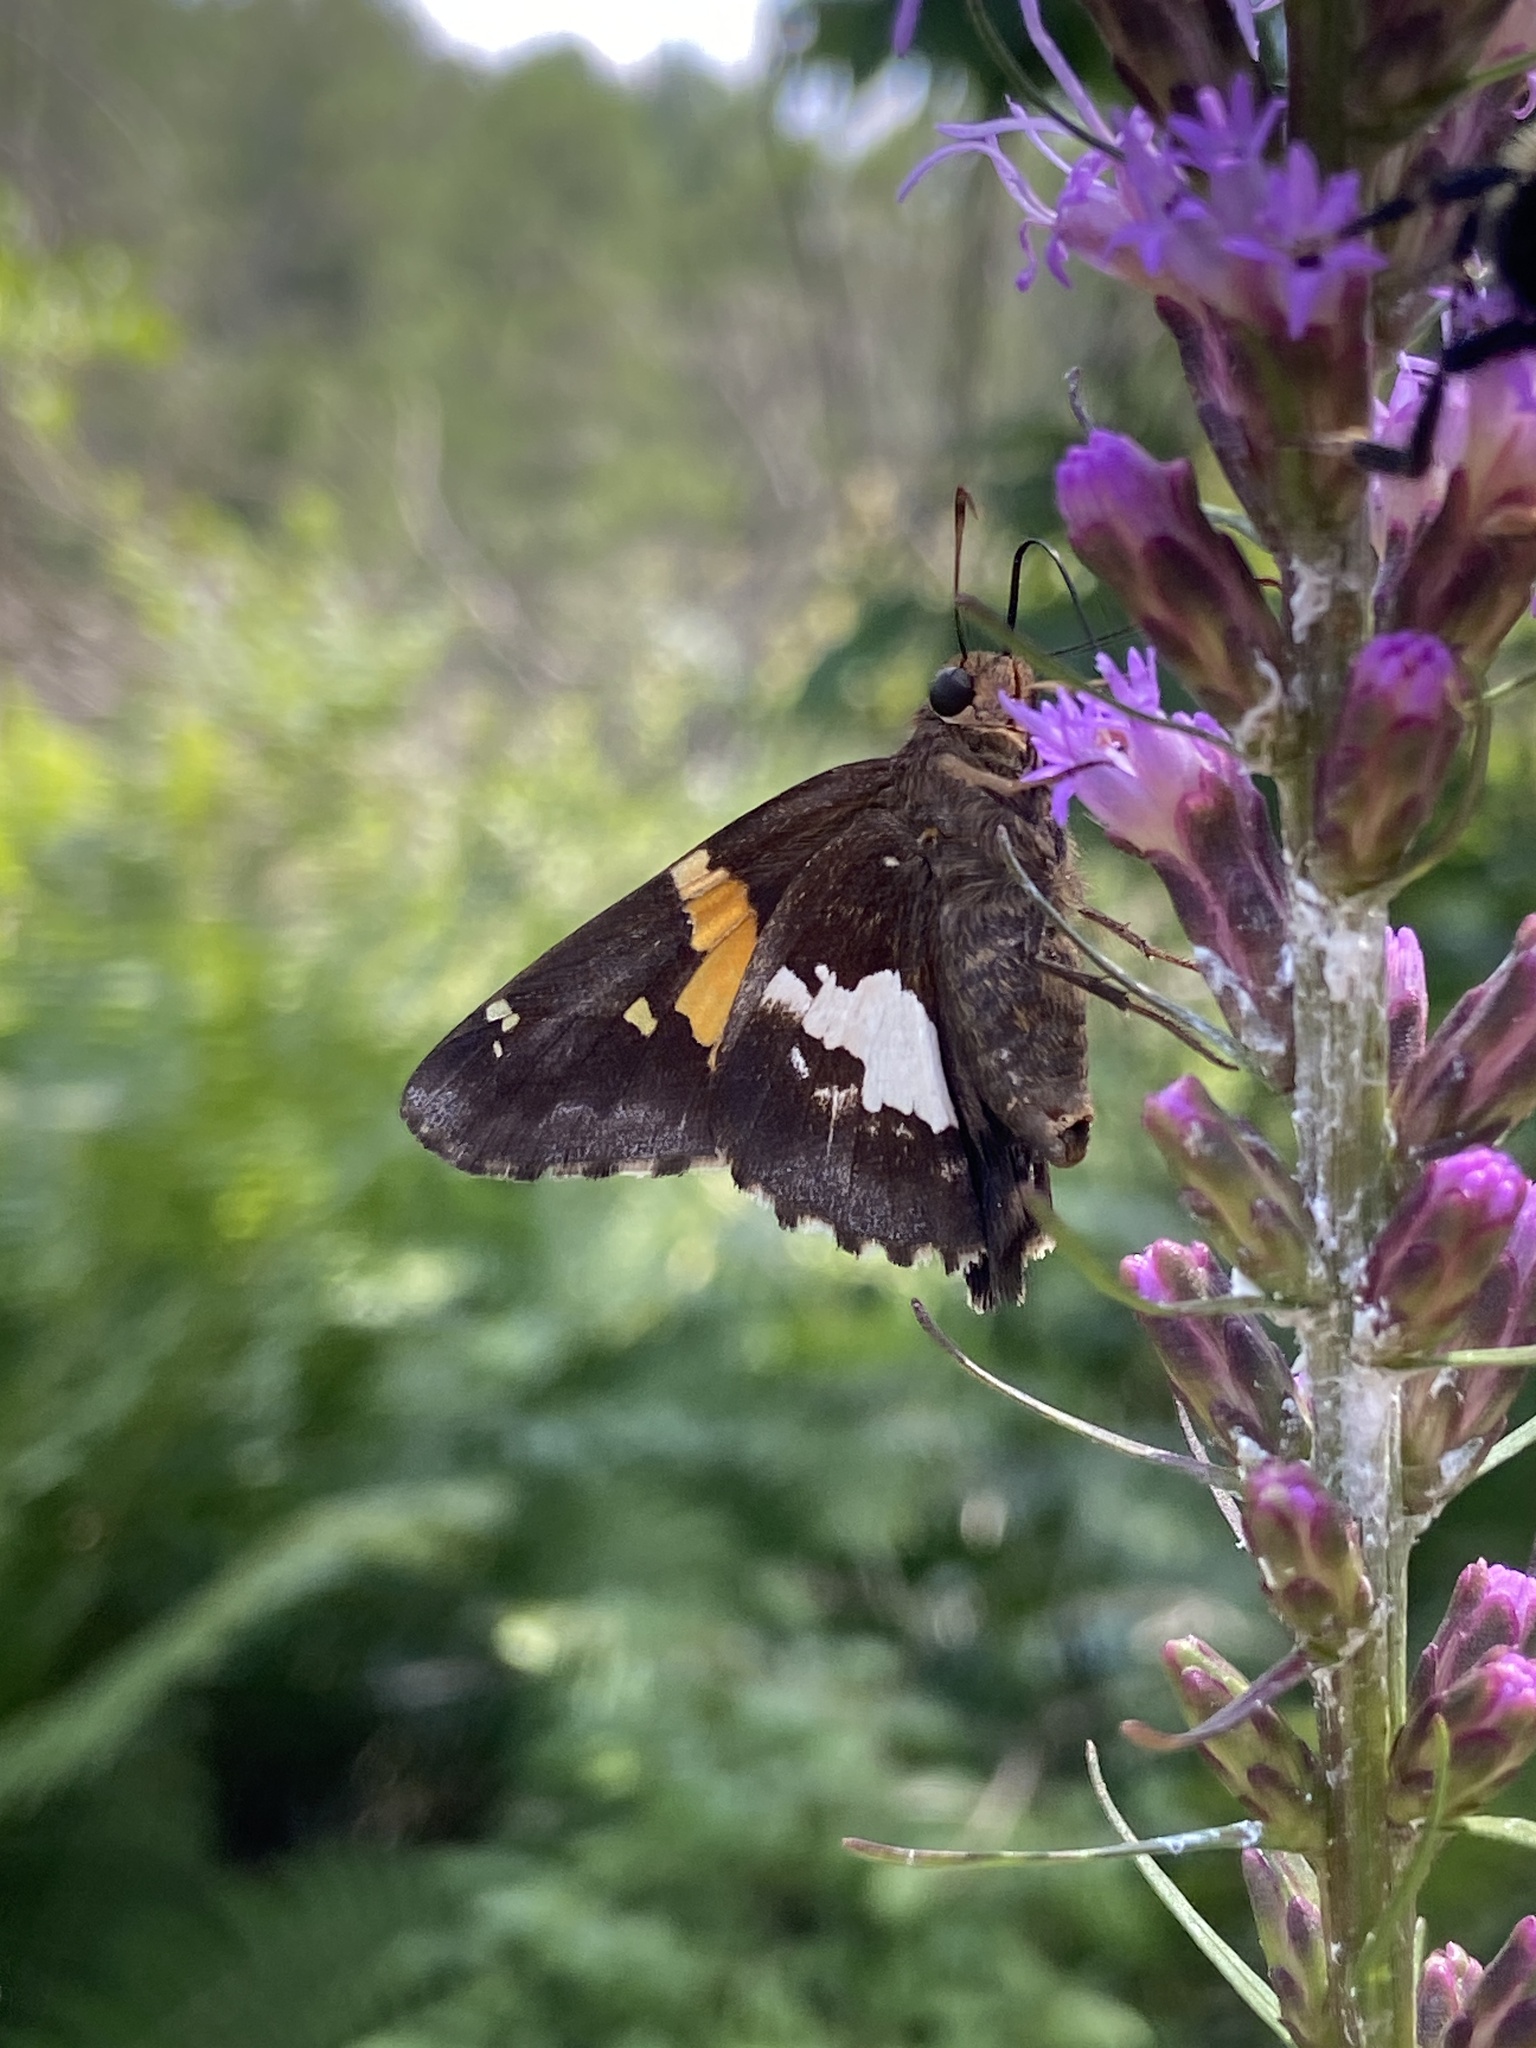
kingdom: Animalia
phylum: Arthropoda
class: Insecta
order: Lepidoptera
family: Hesperiidae
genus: Epargyreus
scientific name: Epargyreus clarus
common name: Silver-spotted skipper
